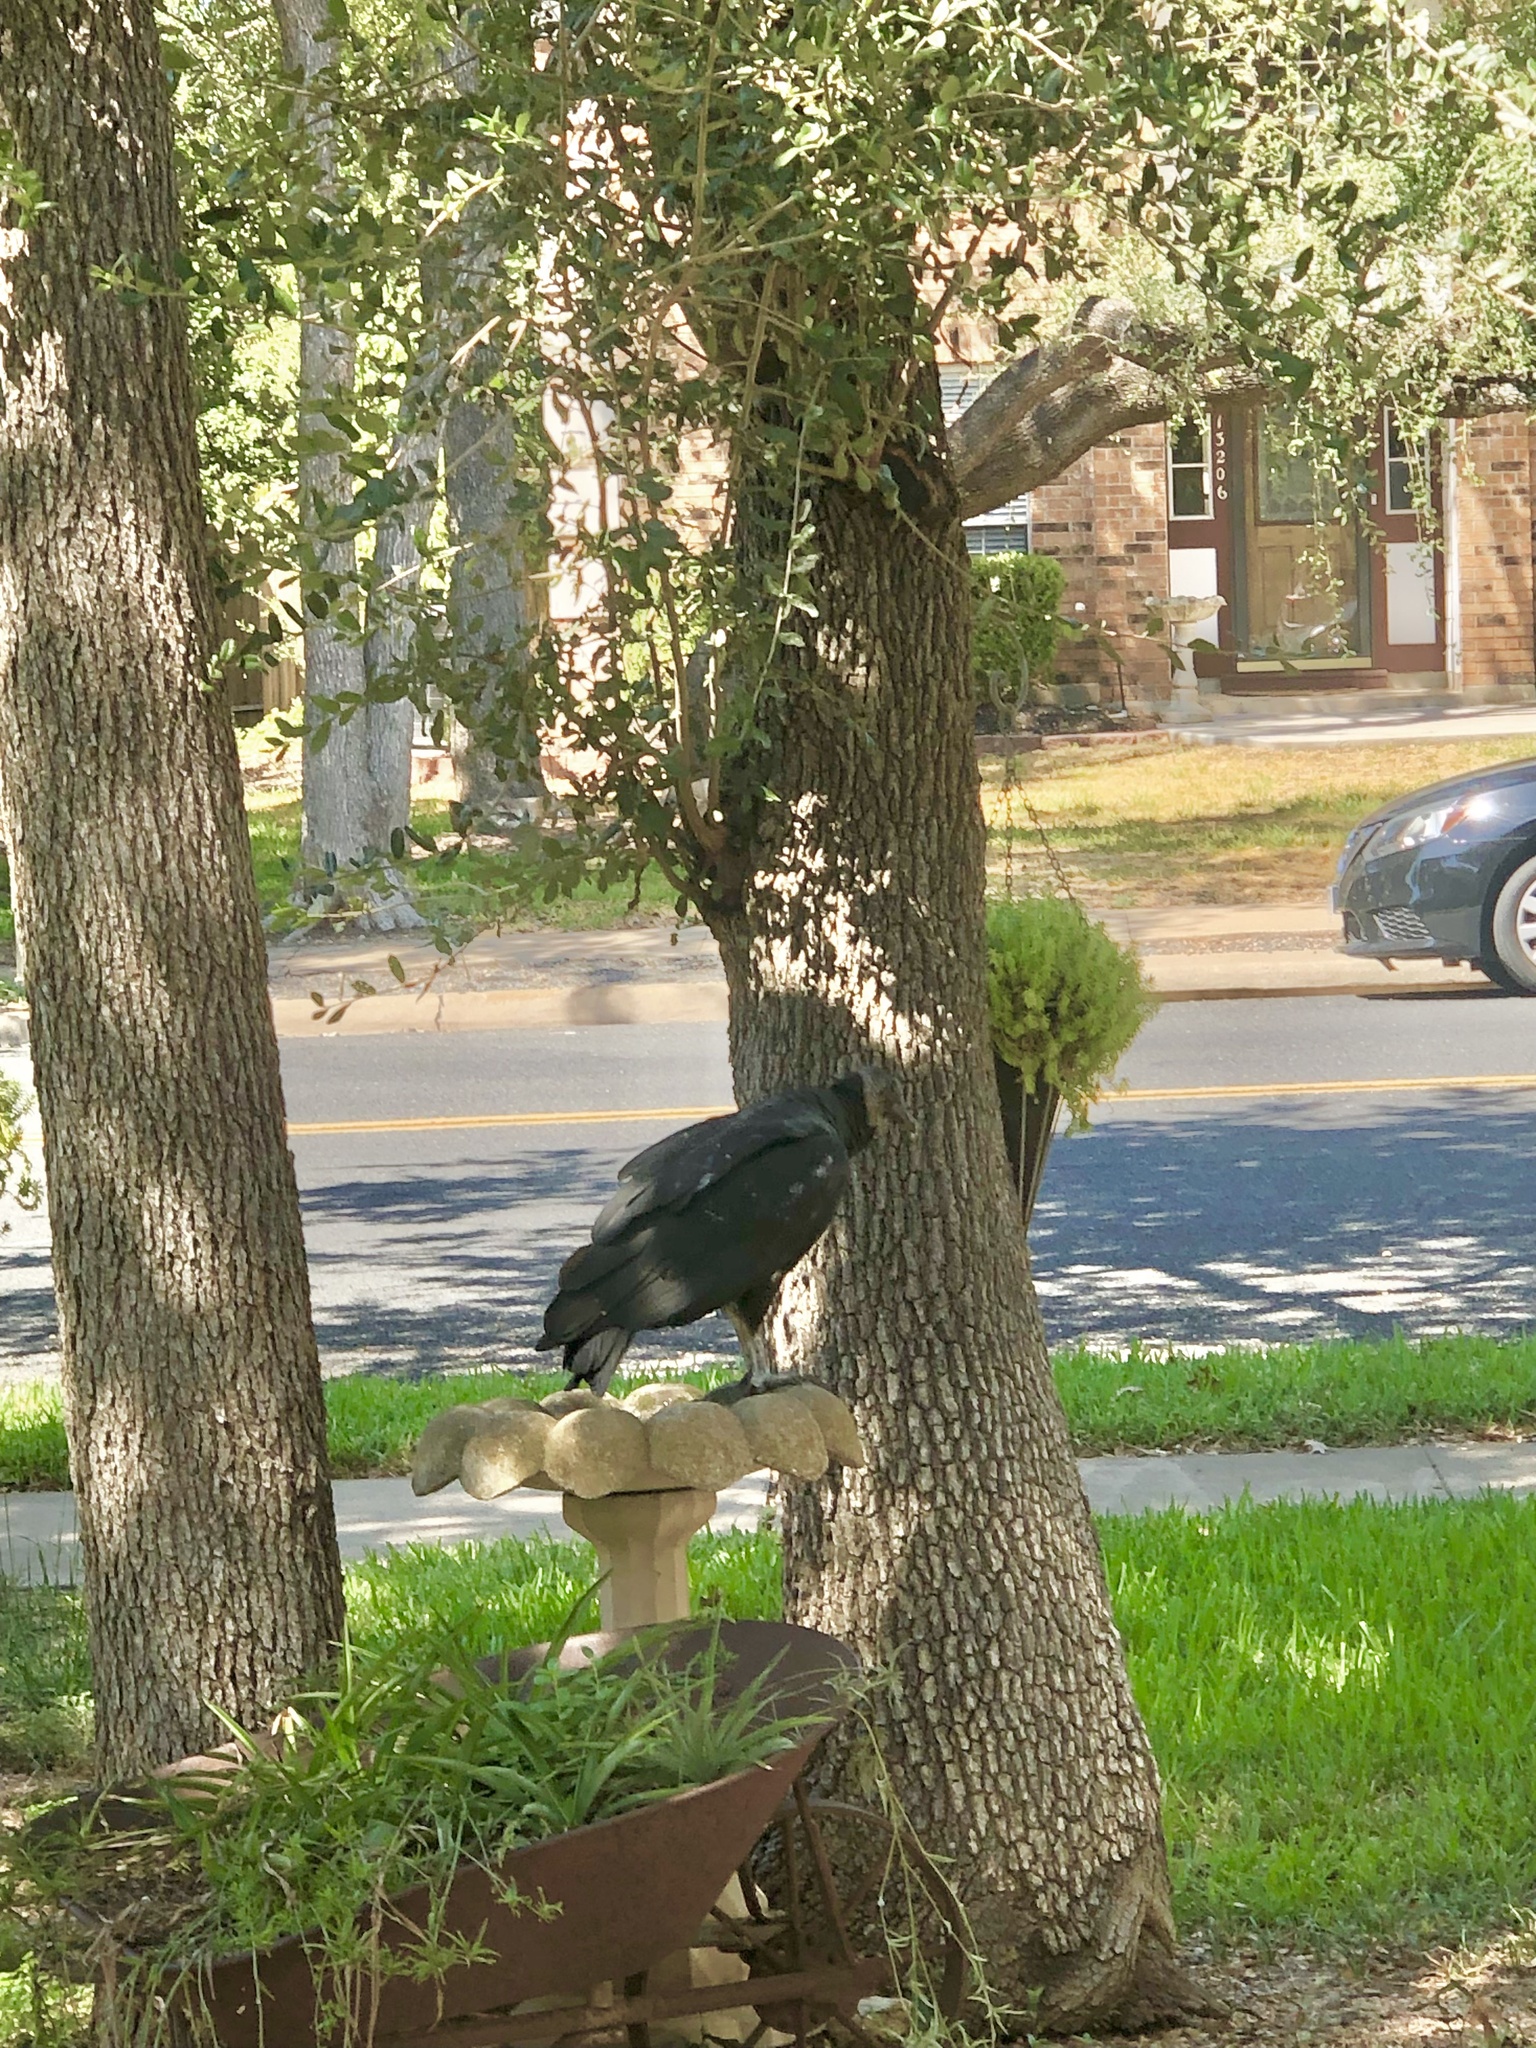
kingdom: Animalia
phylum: Chordata
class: Aves
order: Accipitriformes
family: Cathartidae
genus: Coragyps
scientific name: Coragyps atratus
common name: Black vulture
